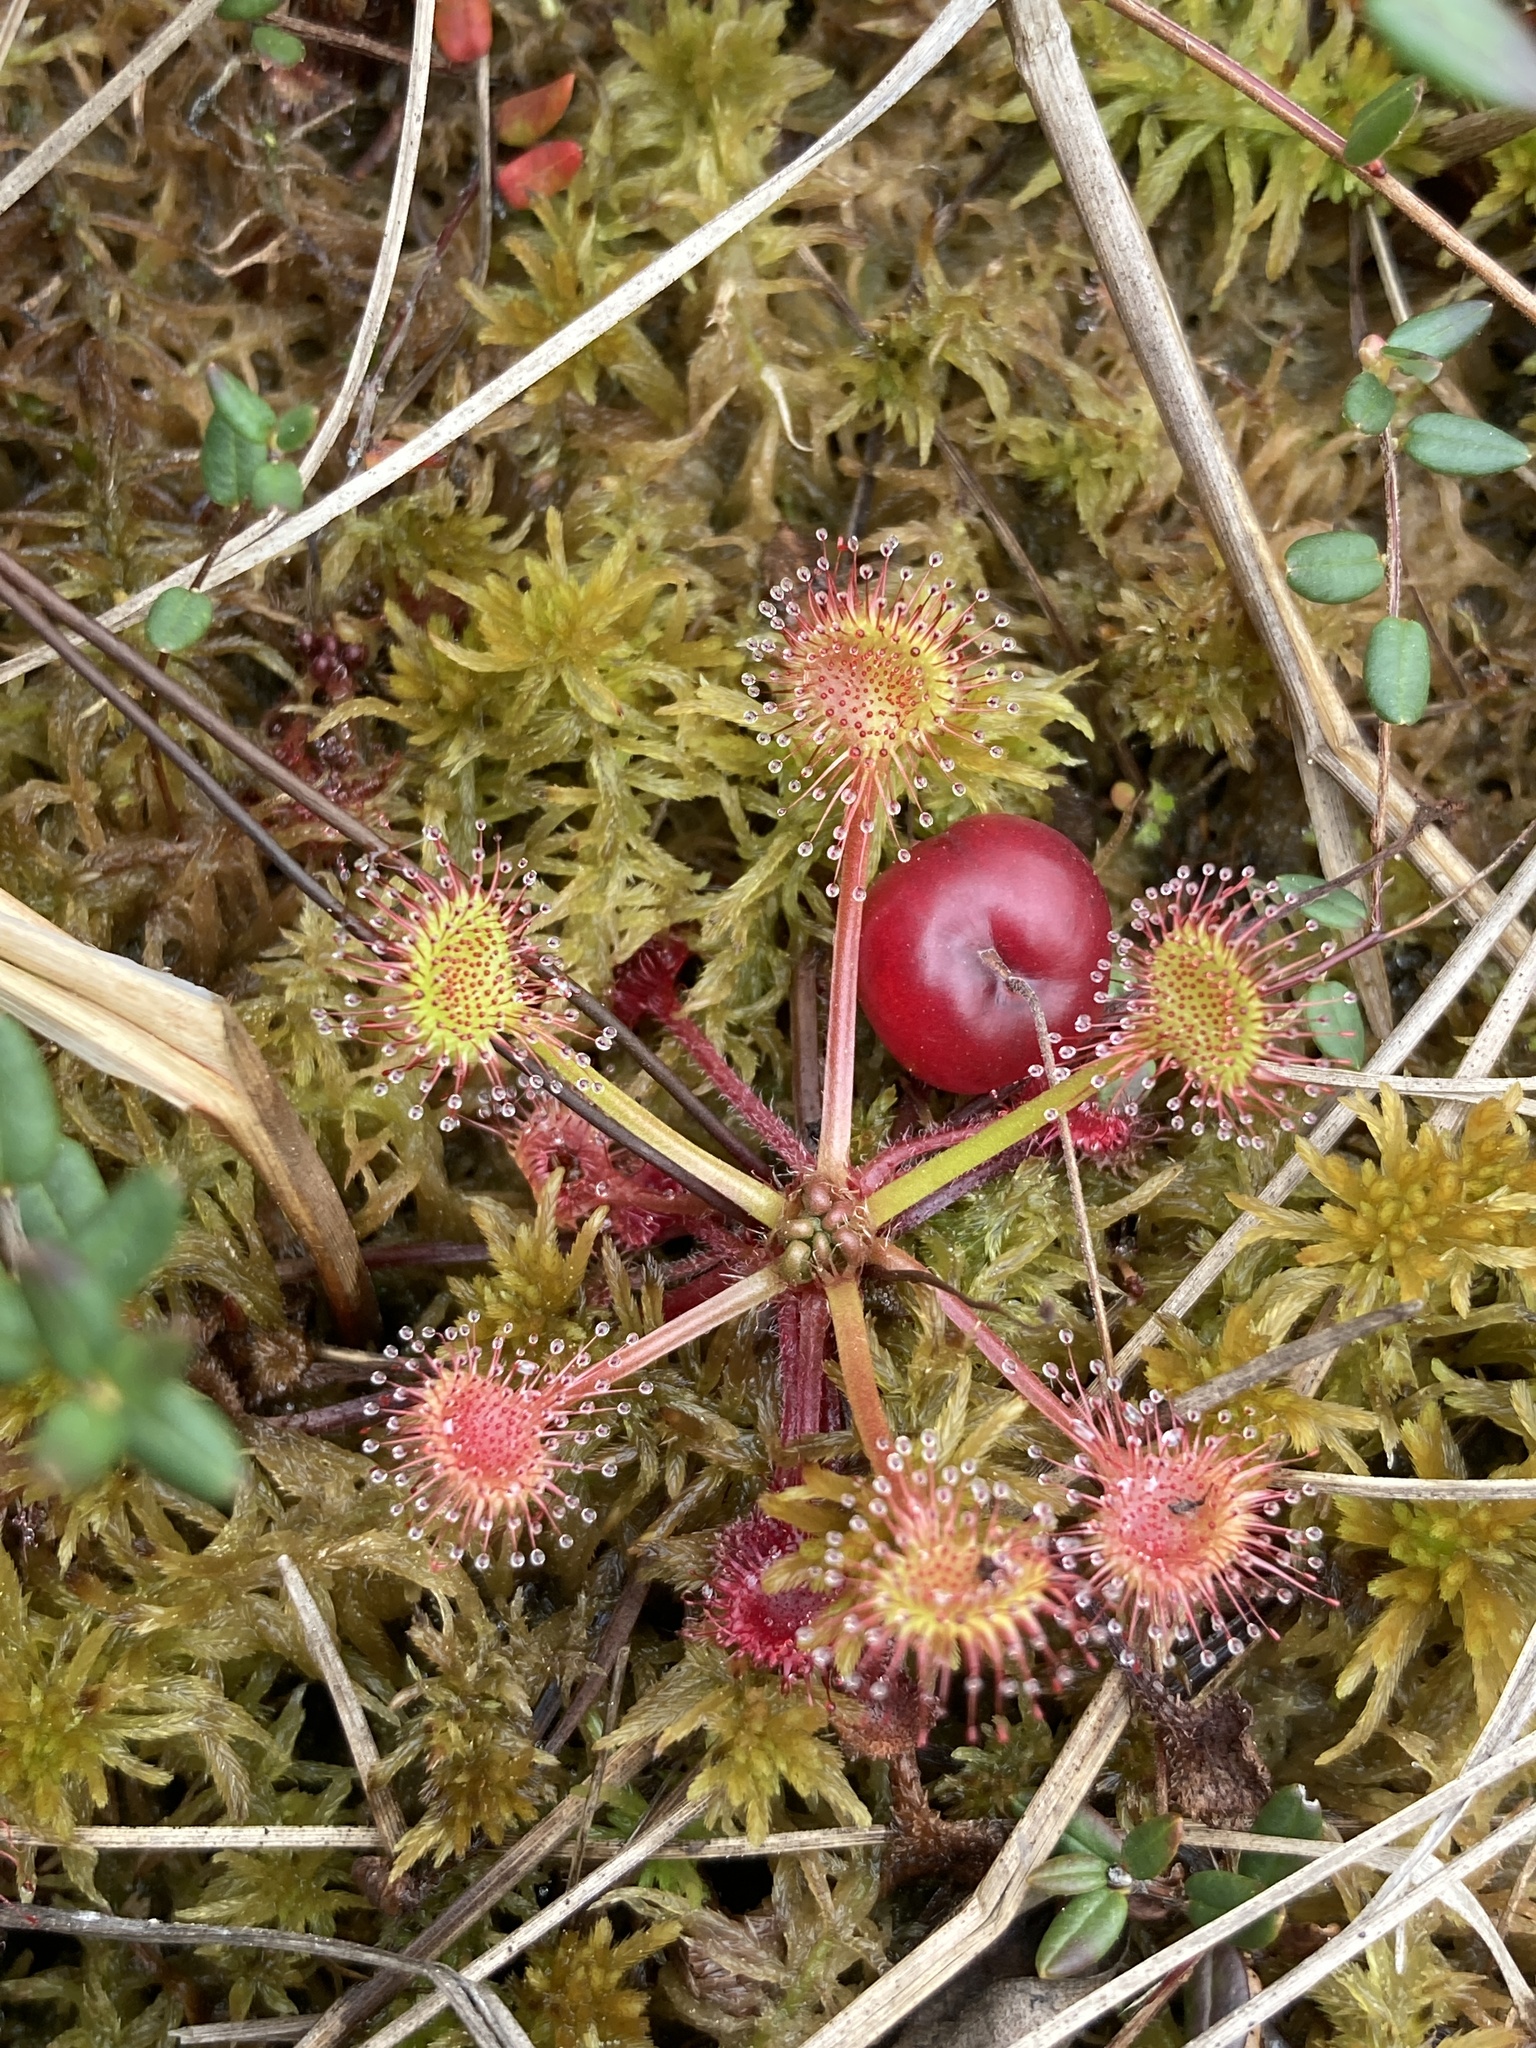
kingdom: Plantae
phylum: Tracheophyta
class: Magnoliopsida
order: Caryophyllales
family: Droseraceae
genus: Drosera
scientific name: Drosera rotundifolia
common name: Round-leaved sundew
